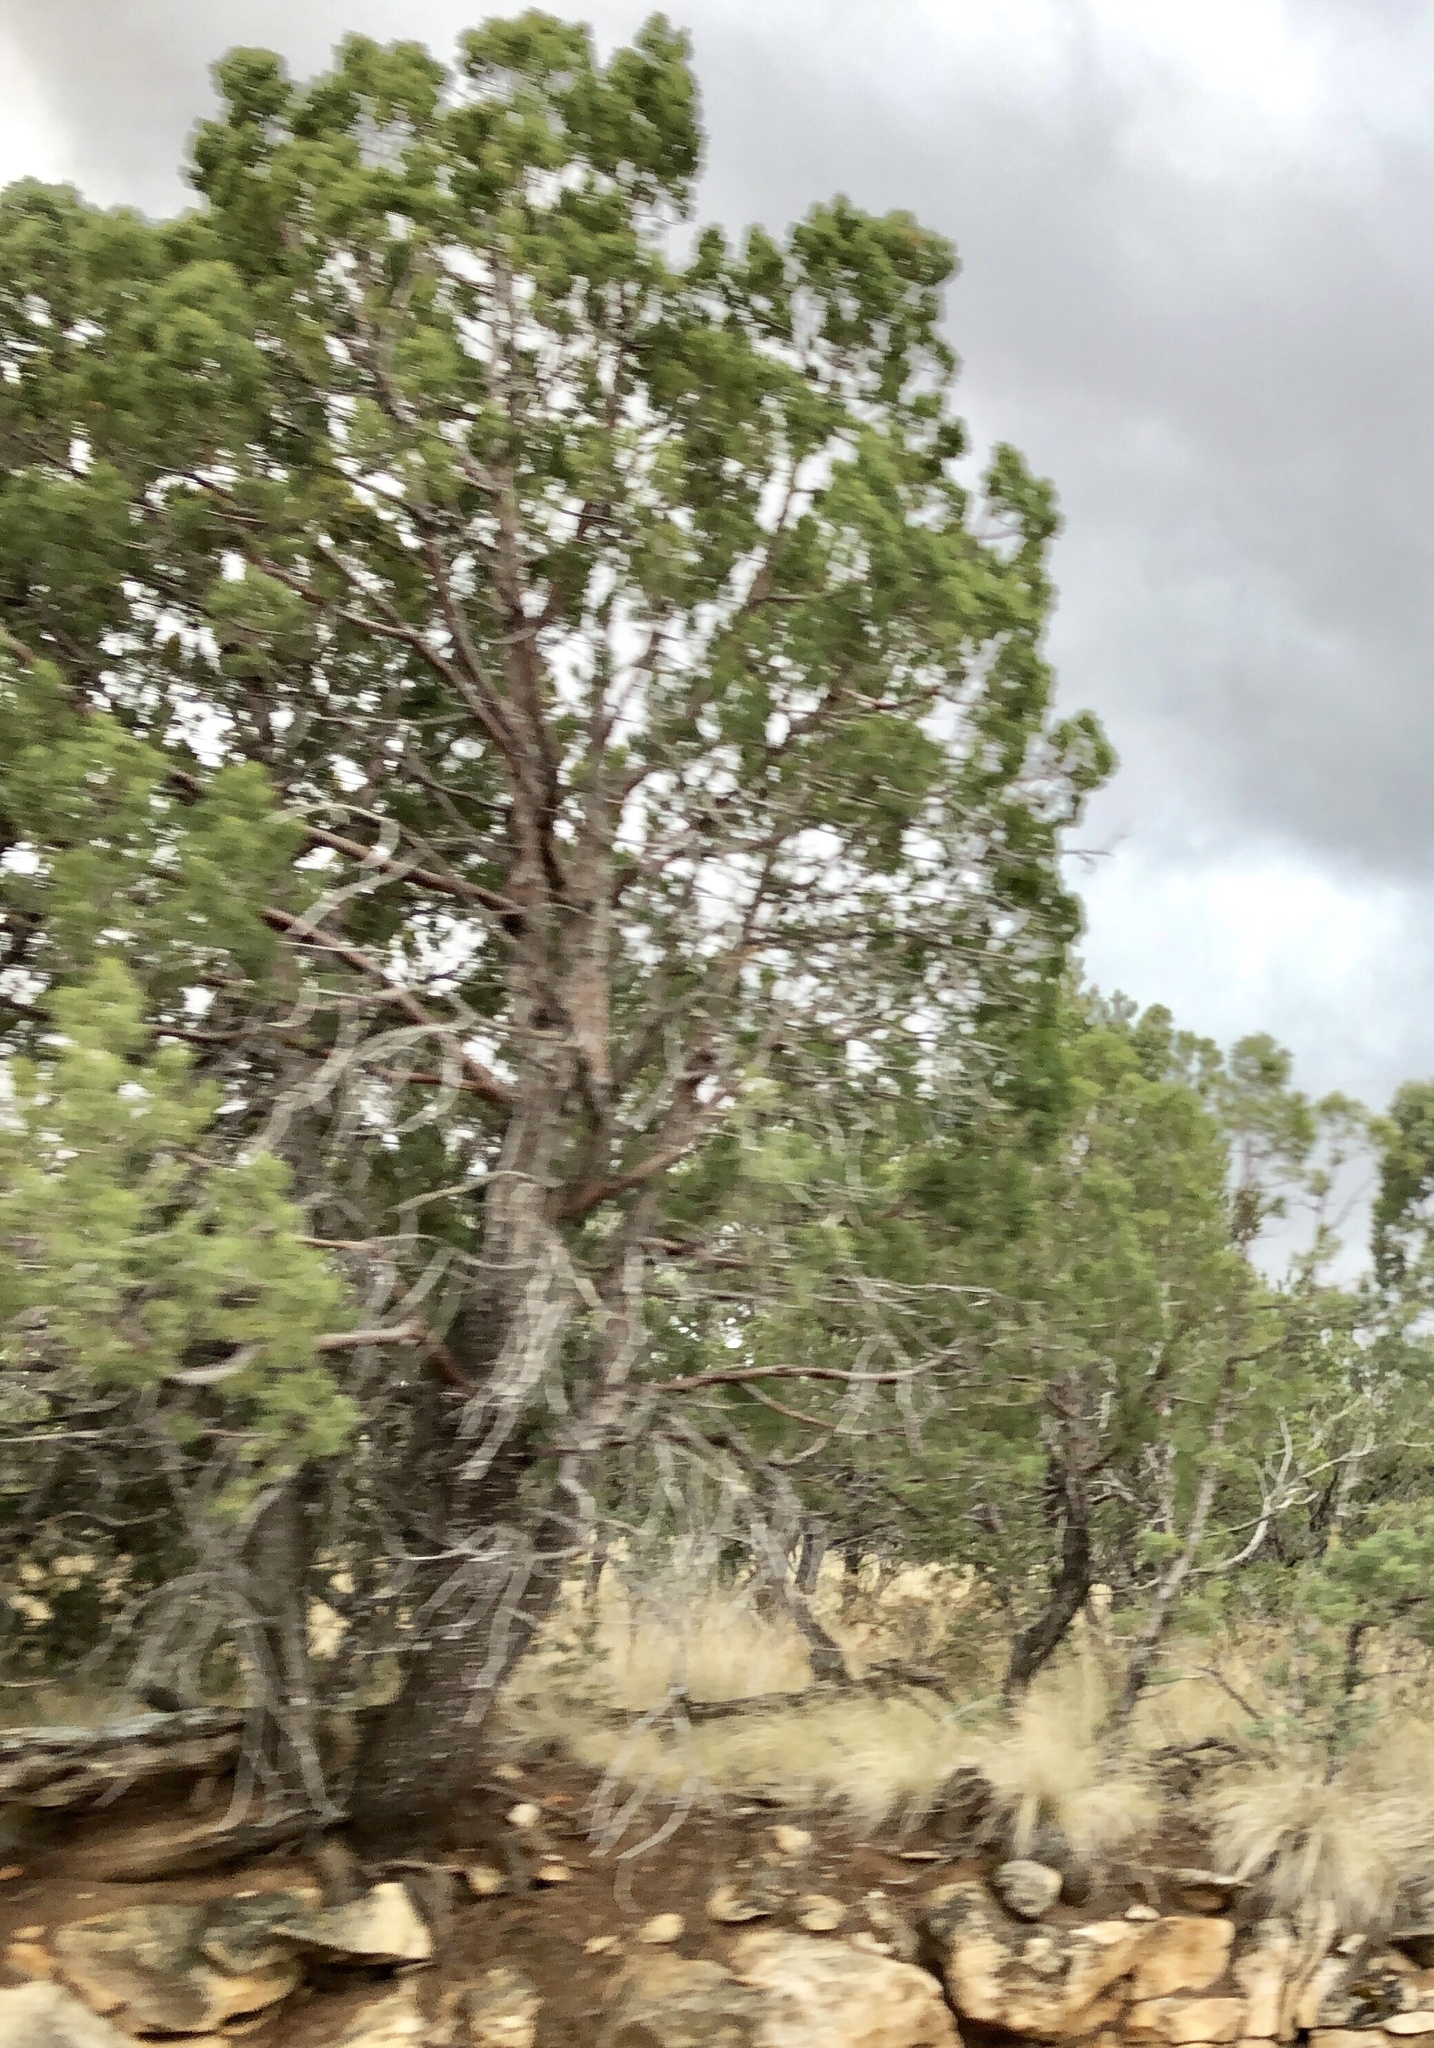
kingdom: Plantae
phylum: Tracheophyta
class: Pinopsida
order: Pinales
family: Cupressaceae
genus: Juniperus
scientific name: Juniperus deppeana
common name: Alligator juniper
